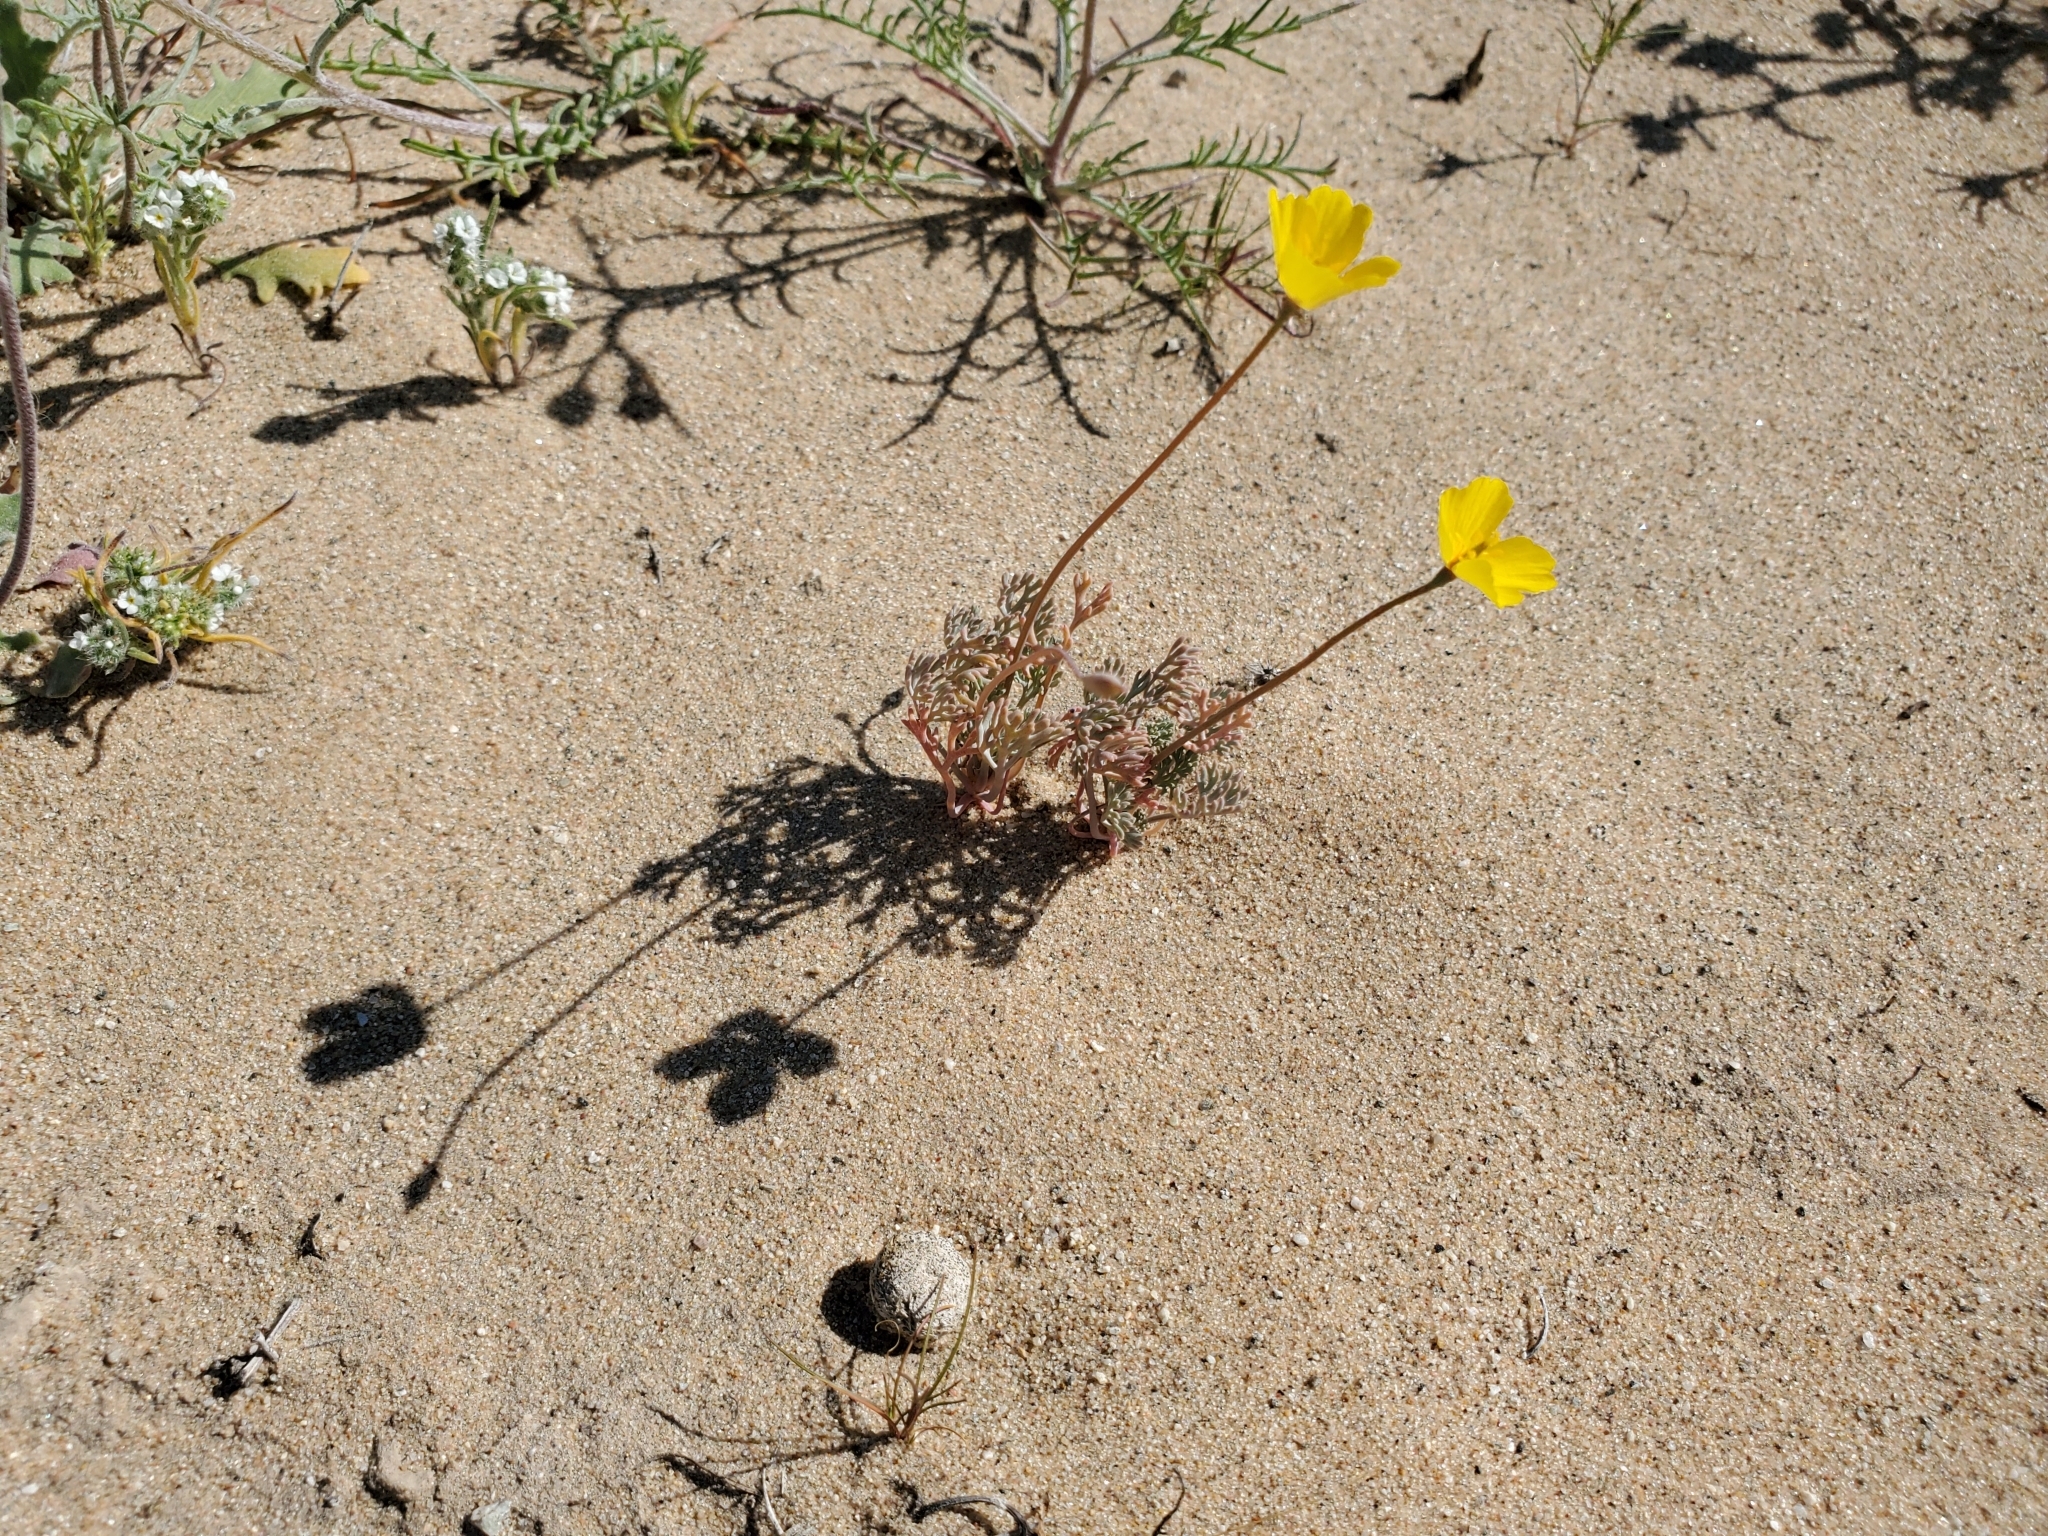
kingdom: Plantae
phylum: Tracheophyta
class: Magnoliopsida
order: Ranunculales
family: Papaveraceae
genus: Eschscholzia
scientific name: Eschscholzia minutiflora
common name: Small-flower california-poppy
